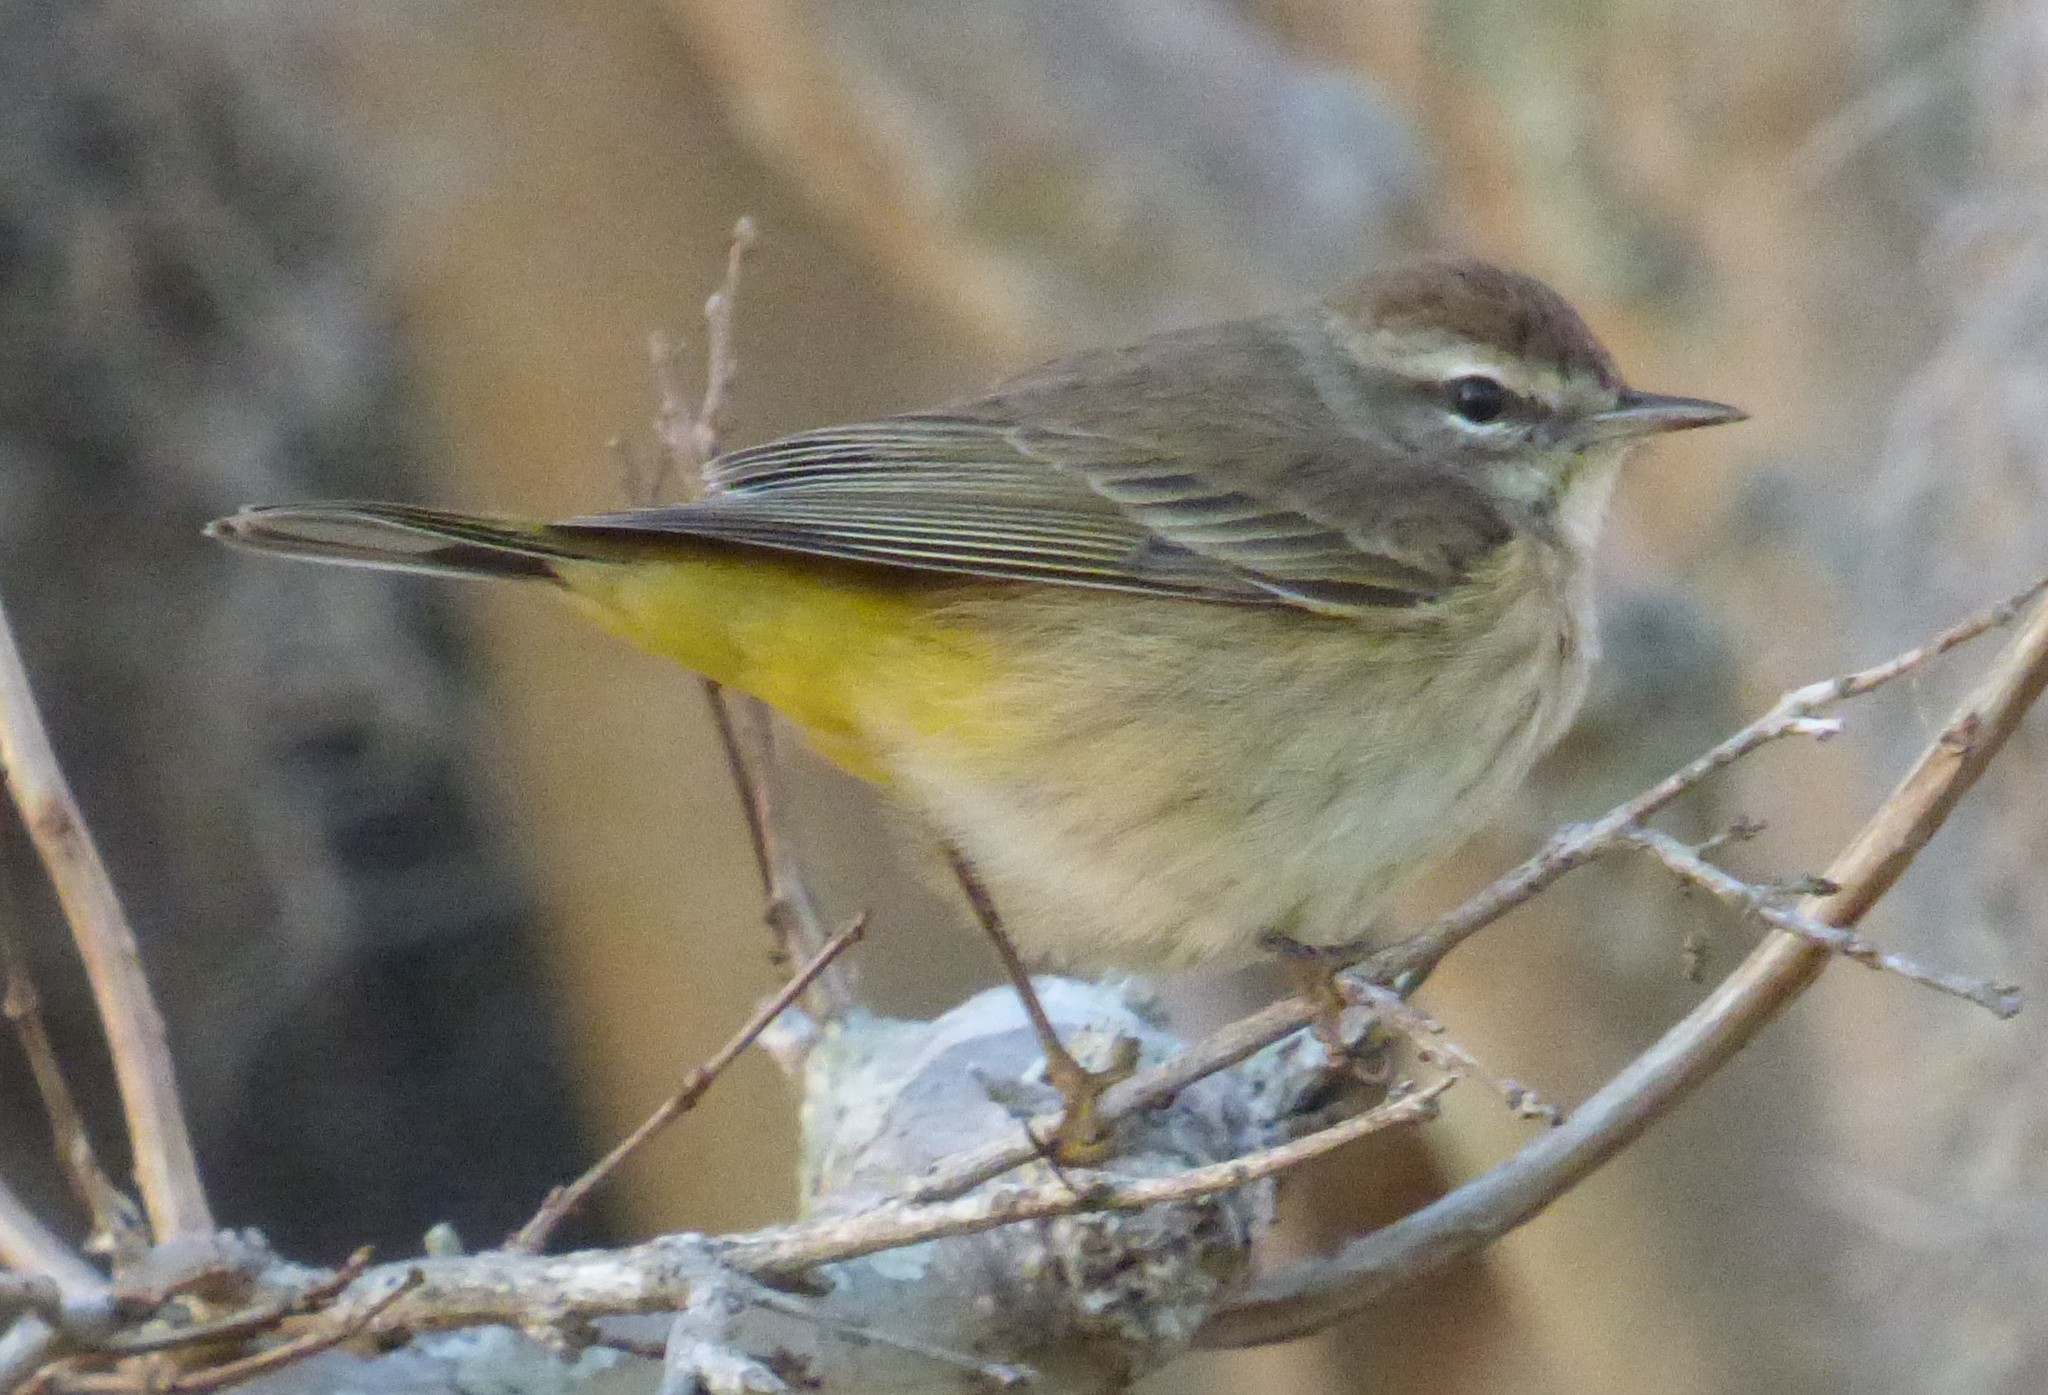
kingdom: Animalia
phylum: Chordata
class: Aves
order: Passeriformes
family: Parulidae
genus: Setophaga
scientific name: Setophaga palmarum
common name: Palm warbler
